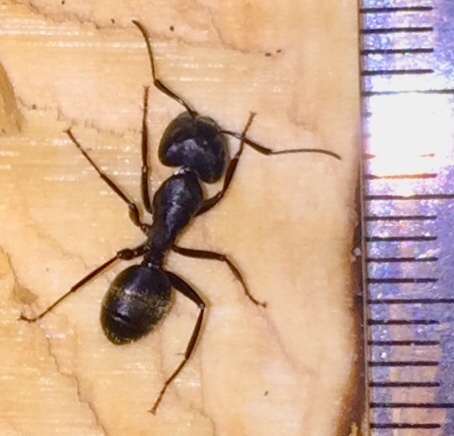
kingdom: Animalia
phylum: Arthropoda
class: Insecta
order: Hymenoptera
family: Formicidae
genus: Camponotus
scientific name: Camponotus pennsylvanicus
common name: Black carpenter ant
